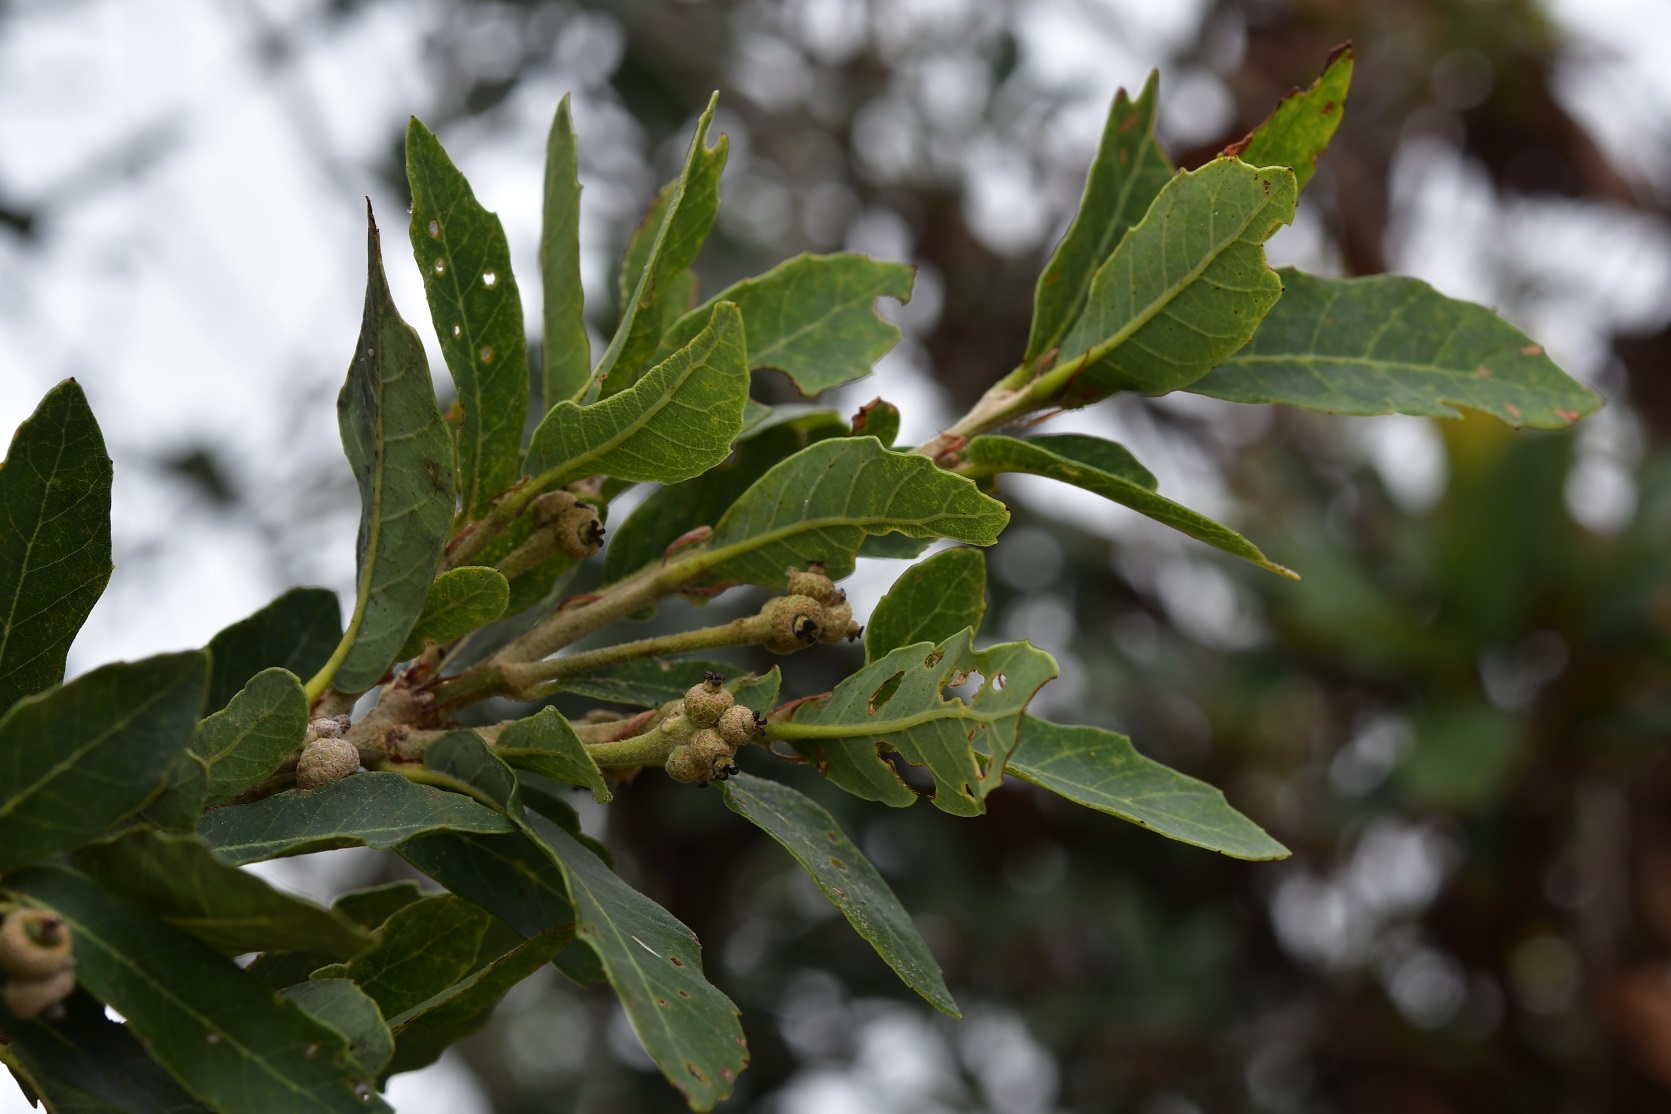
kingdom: Plantae
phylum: Tracheophyta
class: Magnoliopsida
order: Fagales
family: Fagaceae
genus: Quercus
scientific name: Quercus sebifera
